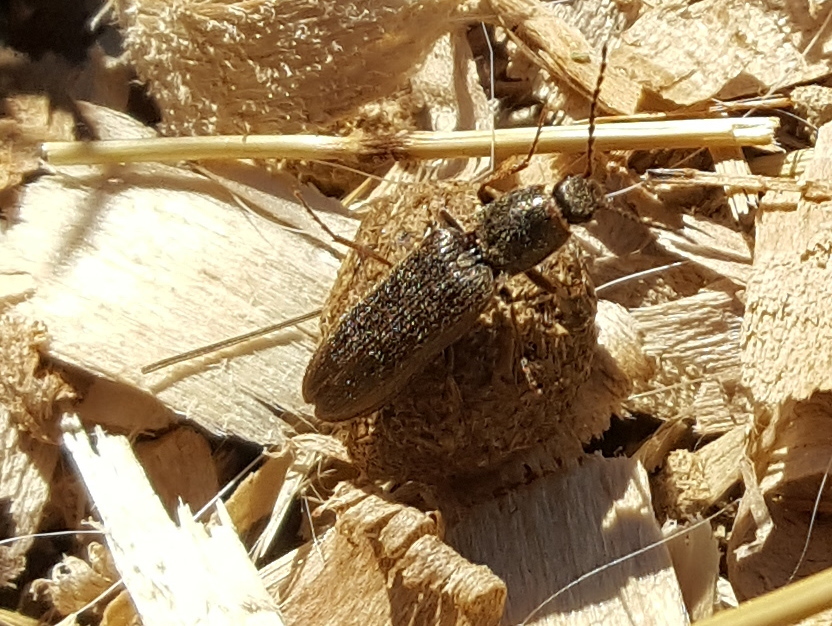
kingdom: Animalia
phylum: Arthropoda
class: Insecta
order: Coleoptera
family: Elateridae
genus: Sylvanelater
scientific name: Sylvanelater cylindriformis
